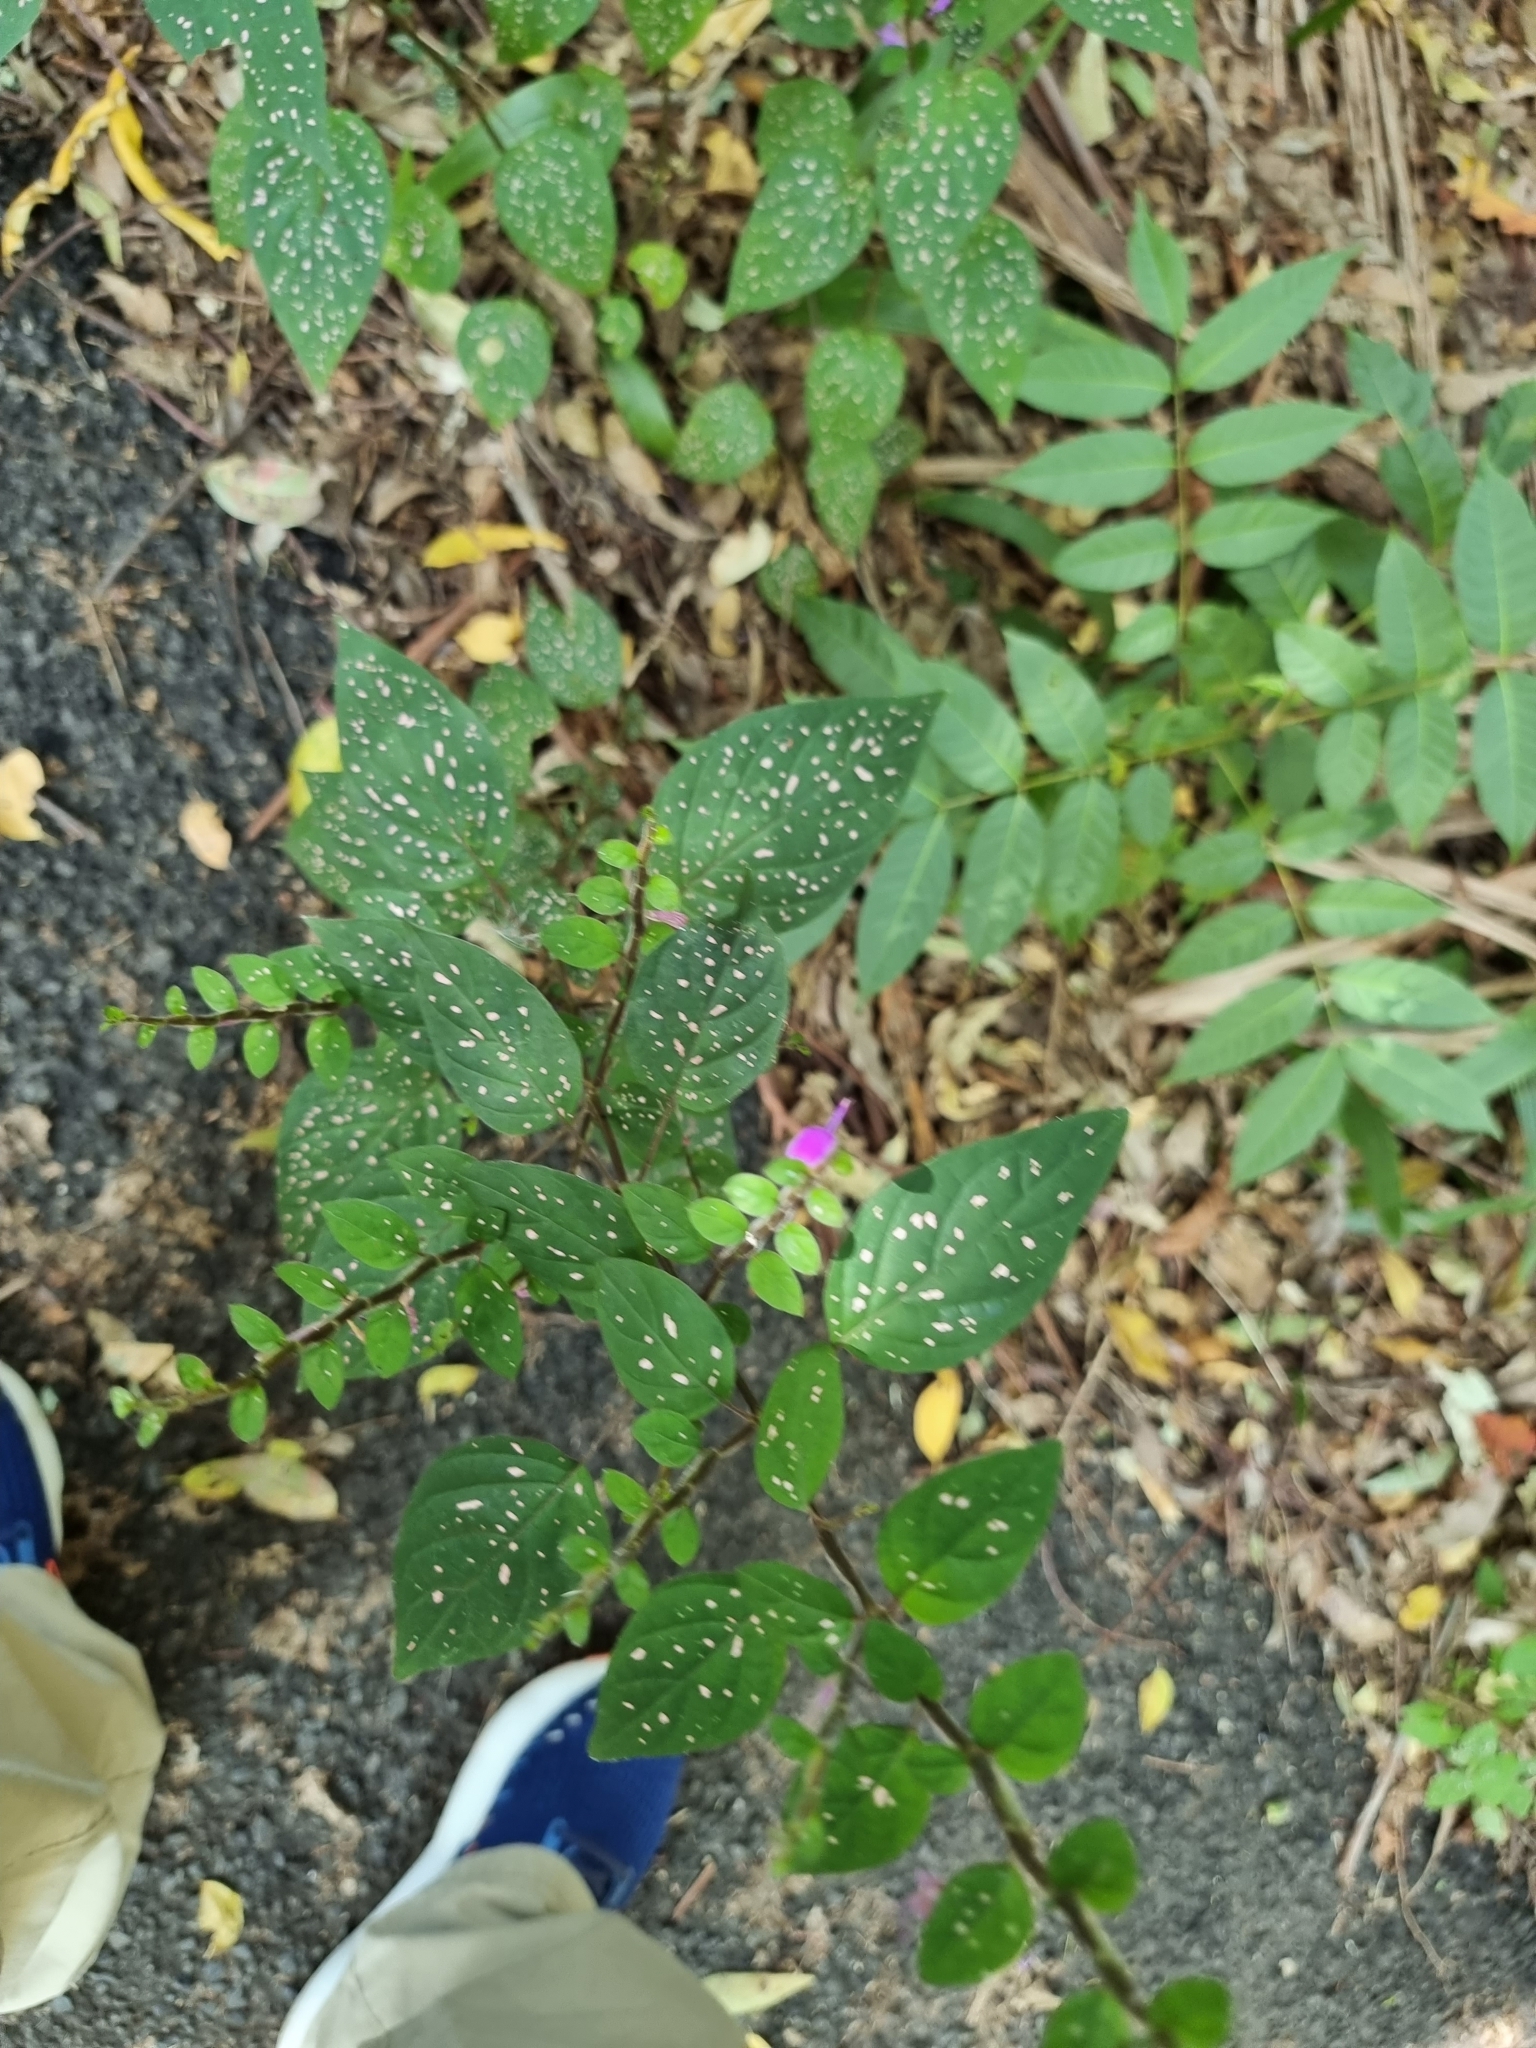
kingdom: Plantae
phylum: Tracheophyta
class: Magnoliopsida
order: Lamiales
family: Acanthaceae
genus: Hypoestes
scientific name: Hypoestes phyllostachya
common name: Polkadot-plant
